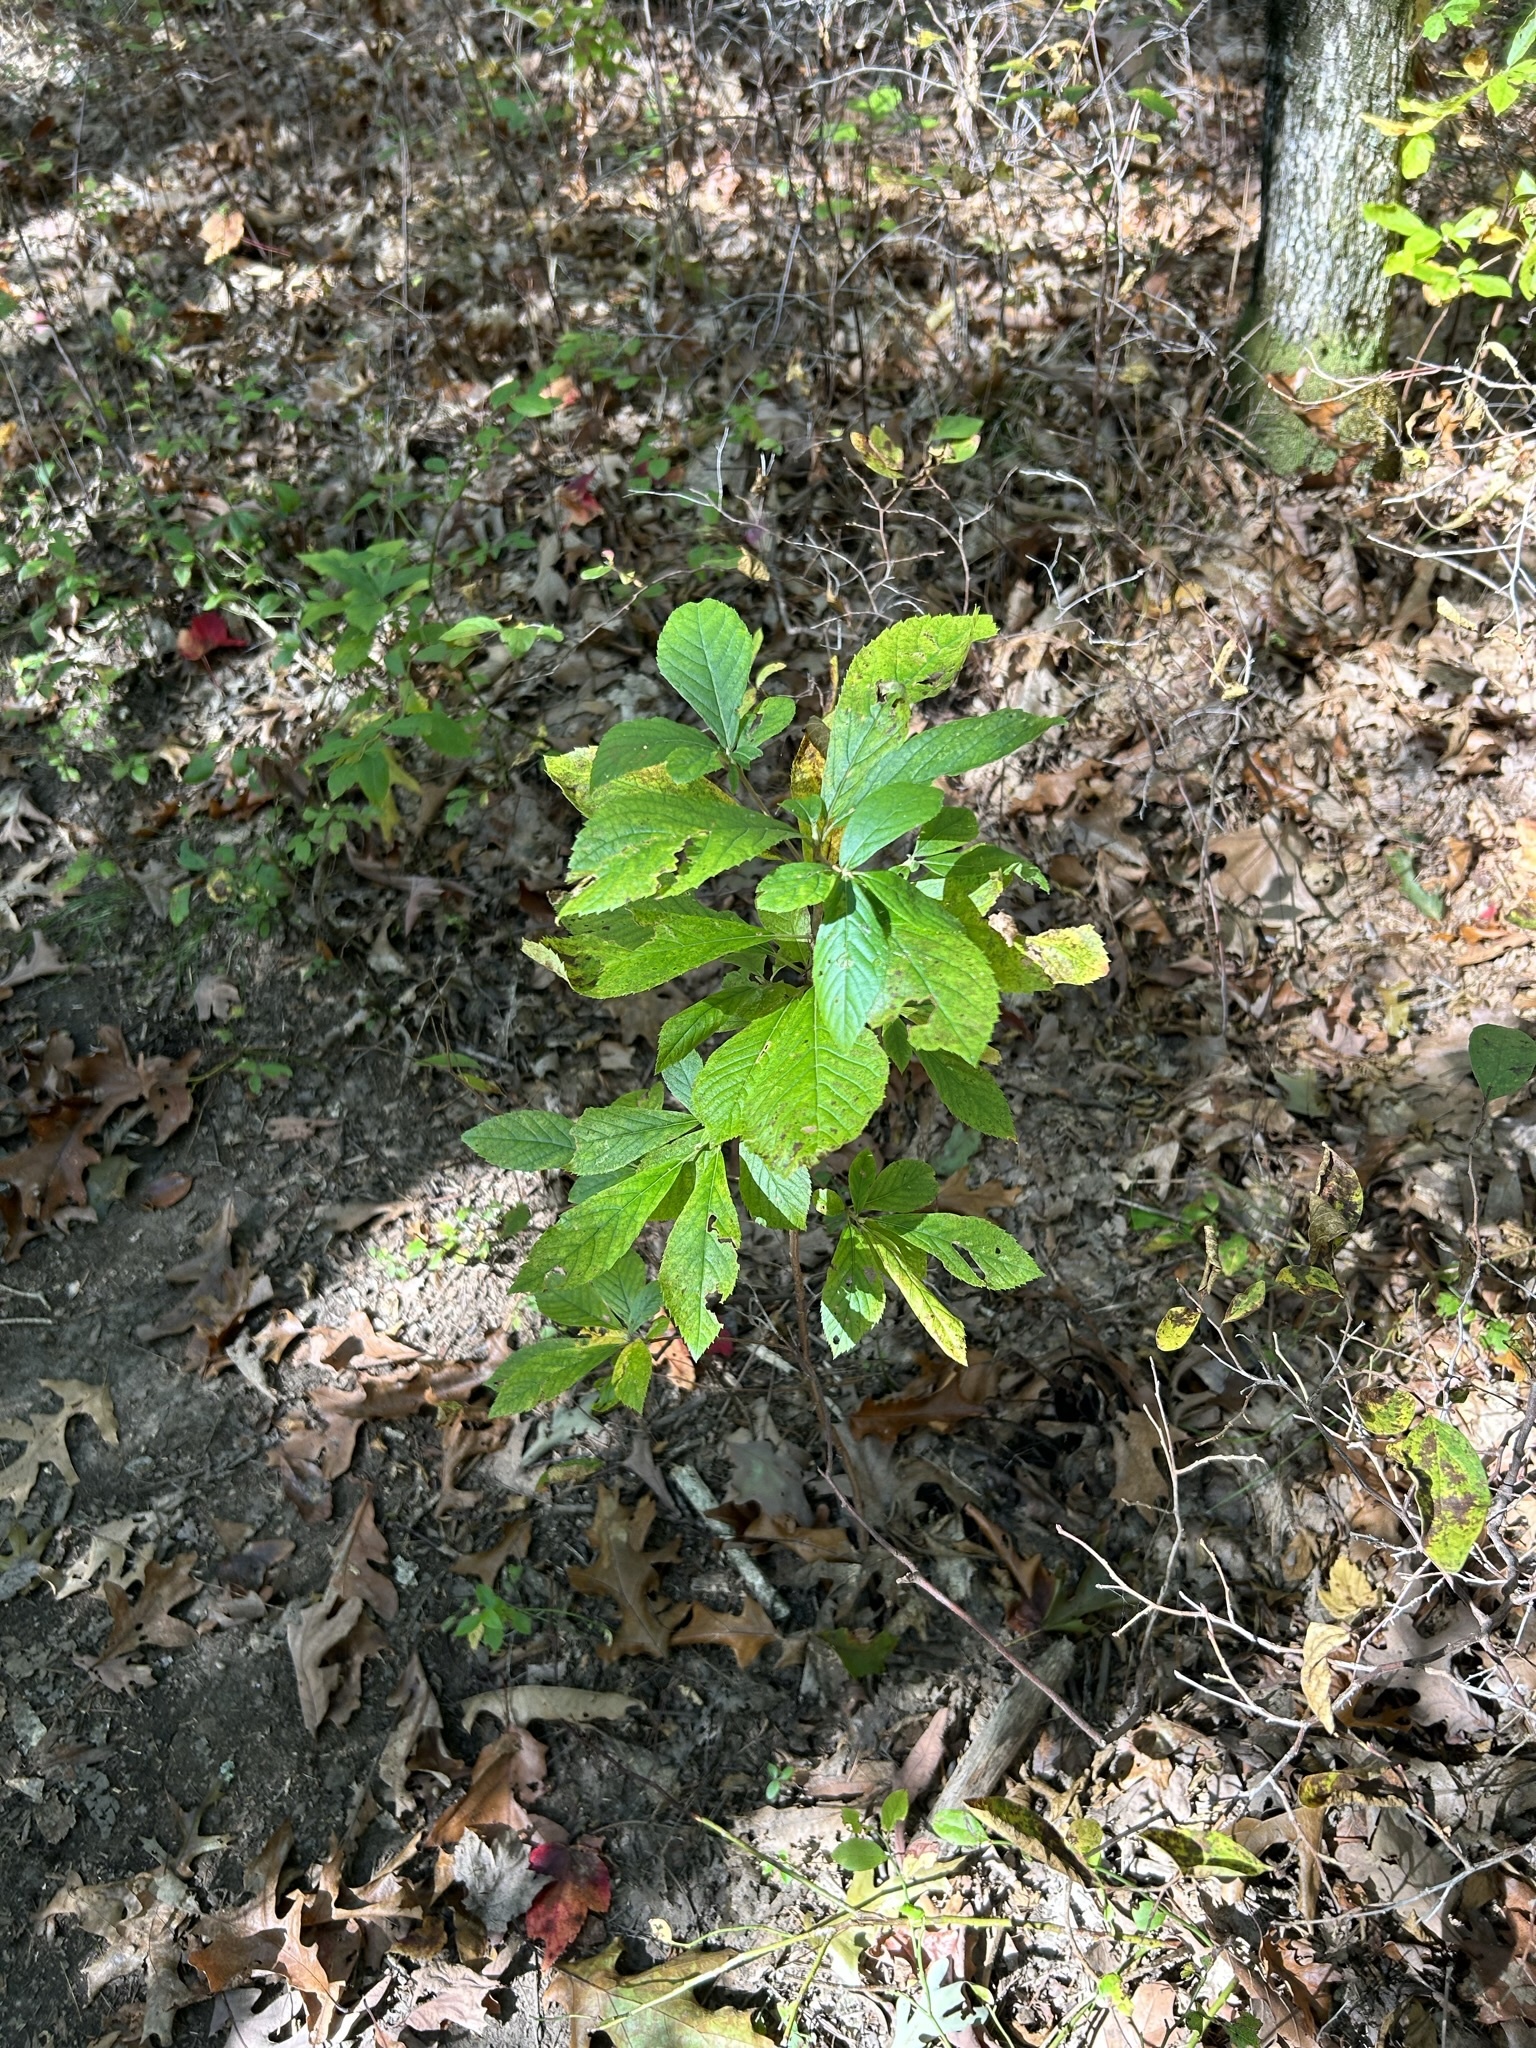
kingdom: Plantae
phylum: Tracheophyta
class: Magnoliopsida
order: Ericales
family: Clethraceae
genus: Clethra
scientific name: Clethra alnifolia
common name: Sweet pepperbush
